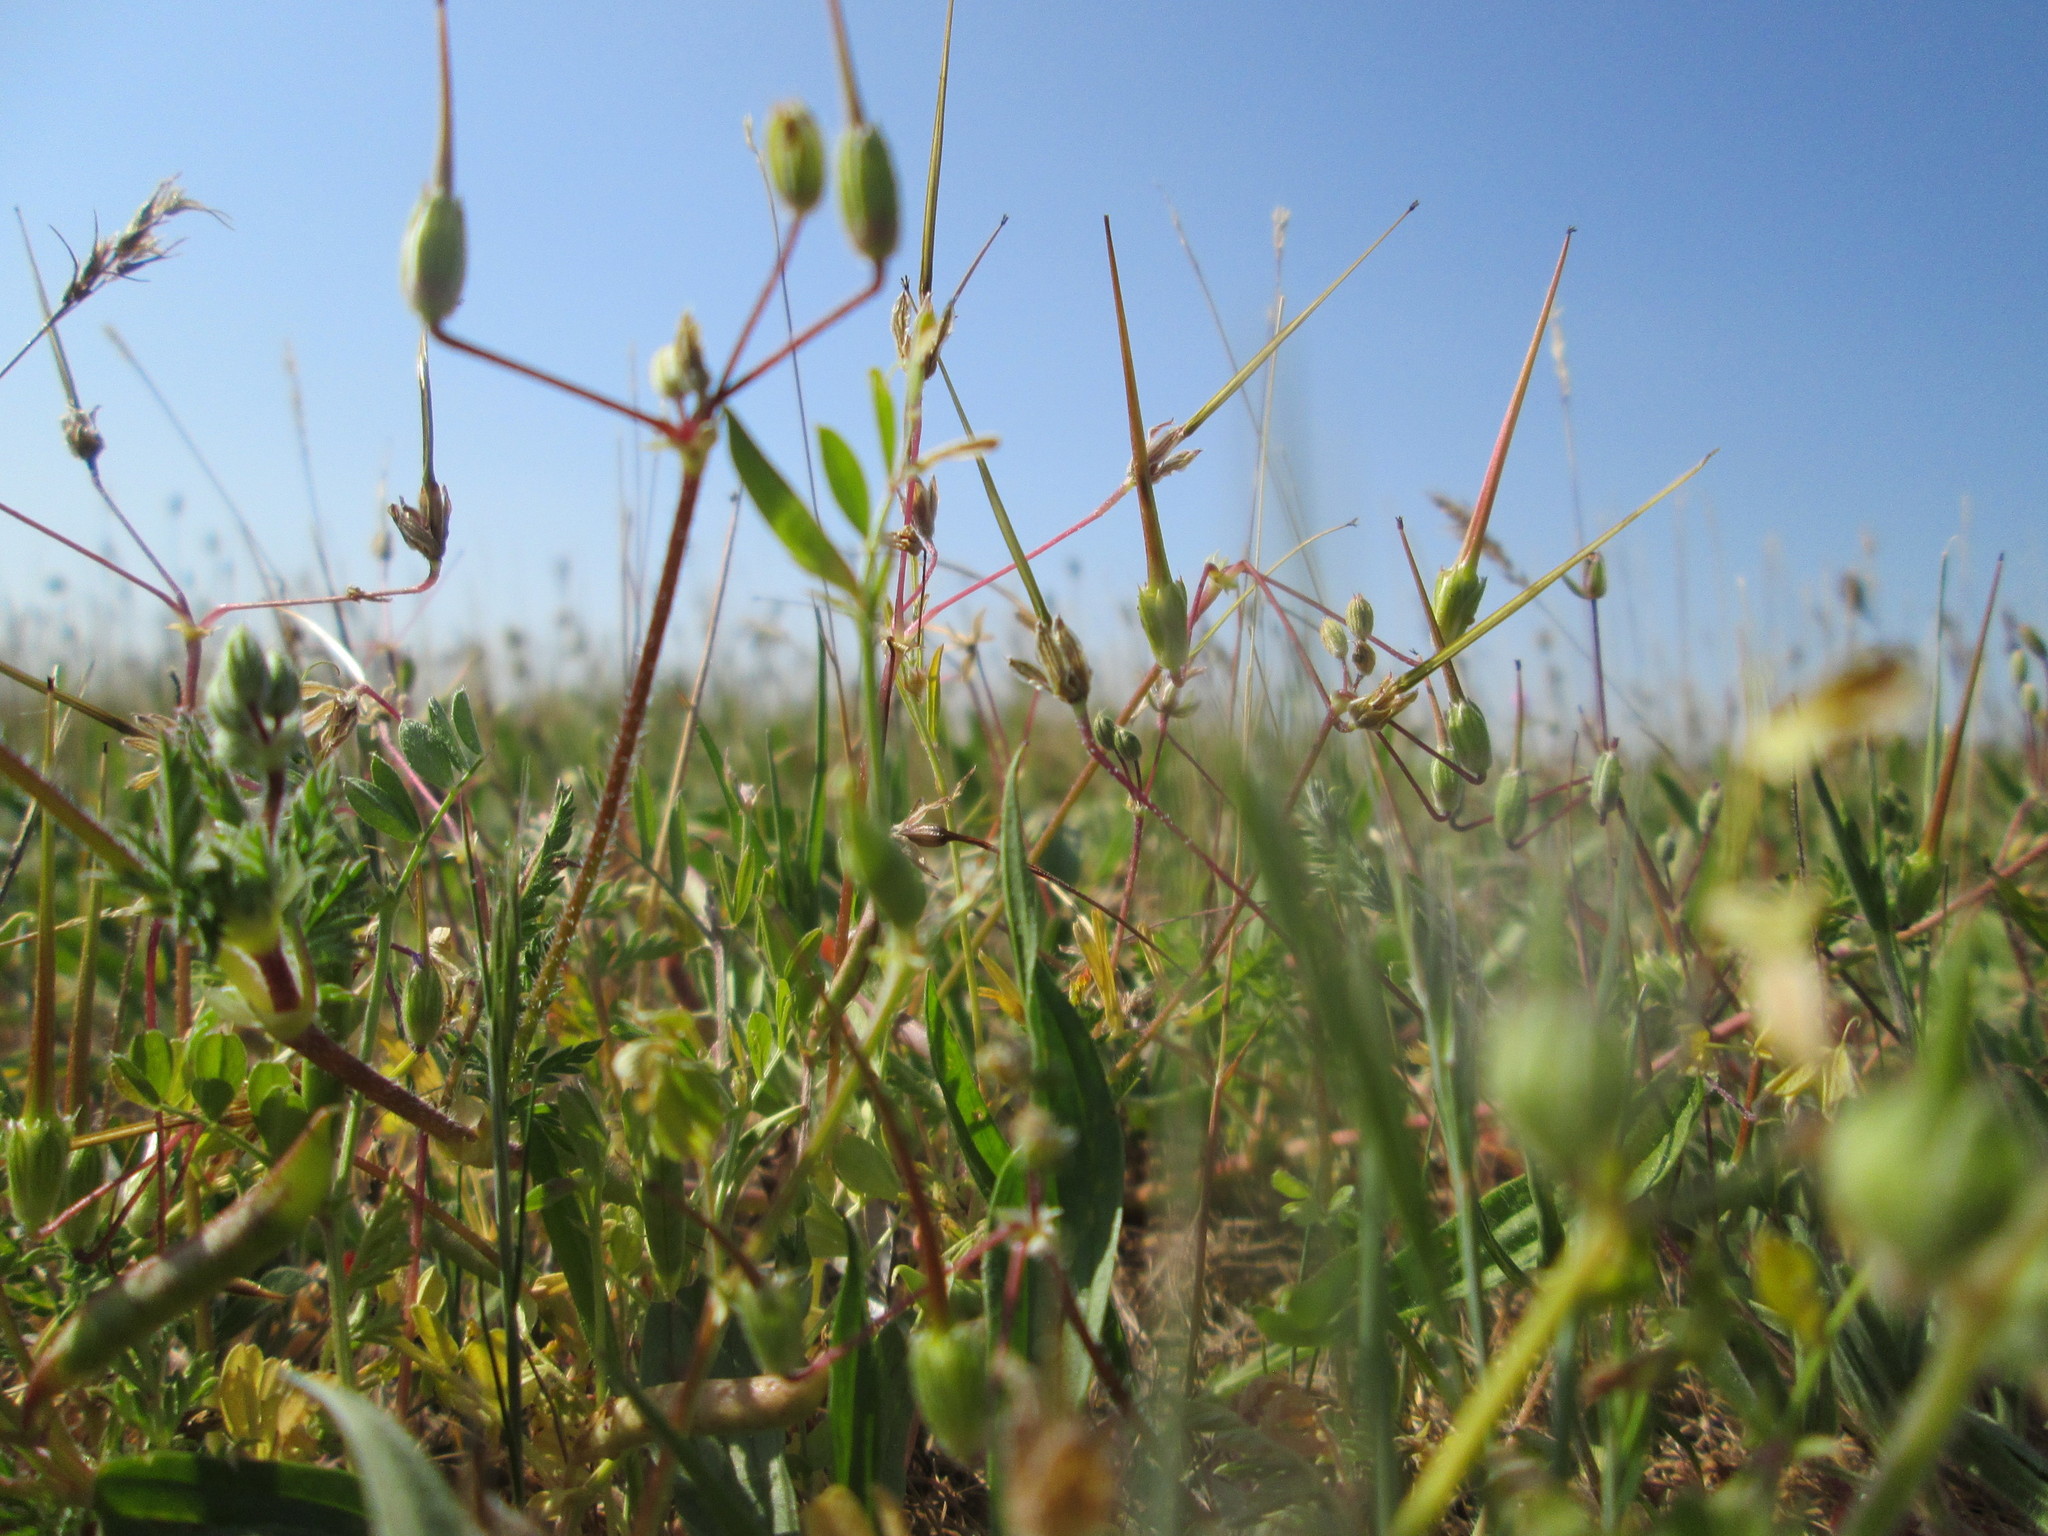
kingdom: Plantae
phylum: Tracheophyta
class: Magnoliopsida
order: Geraniales
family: Geraniaceae
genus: Erodium
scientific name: Erodium cicutarium
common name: Common stork's-bill
